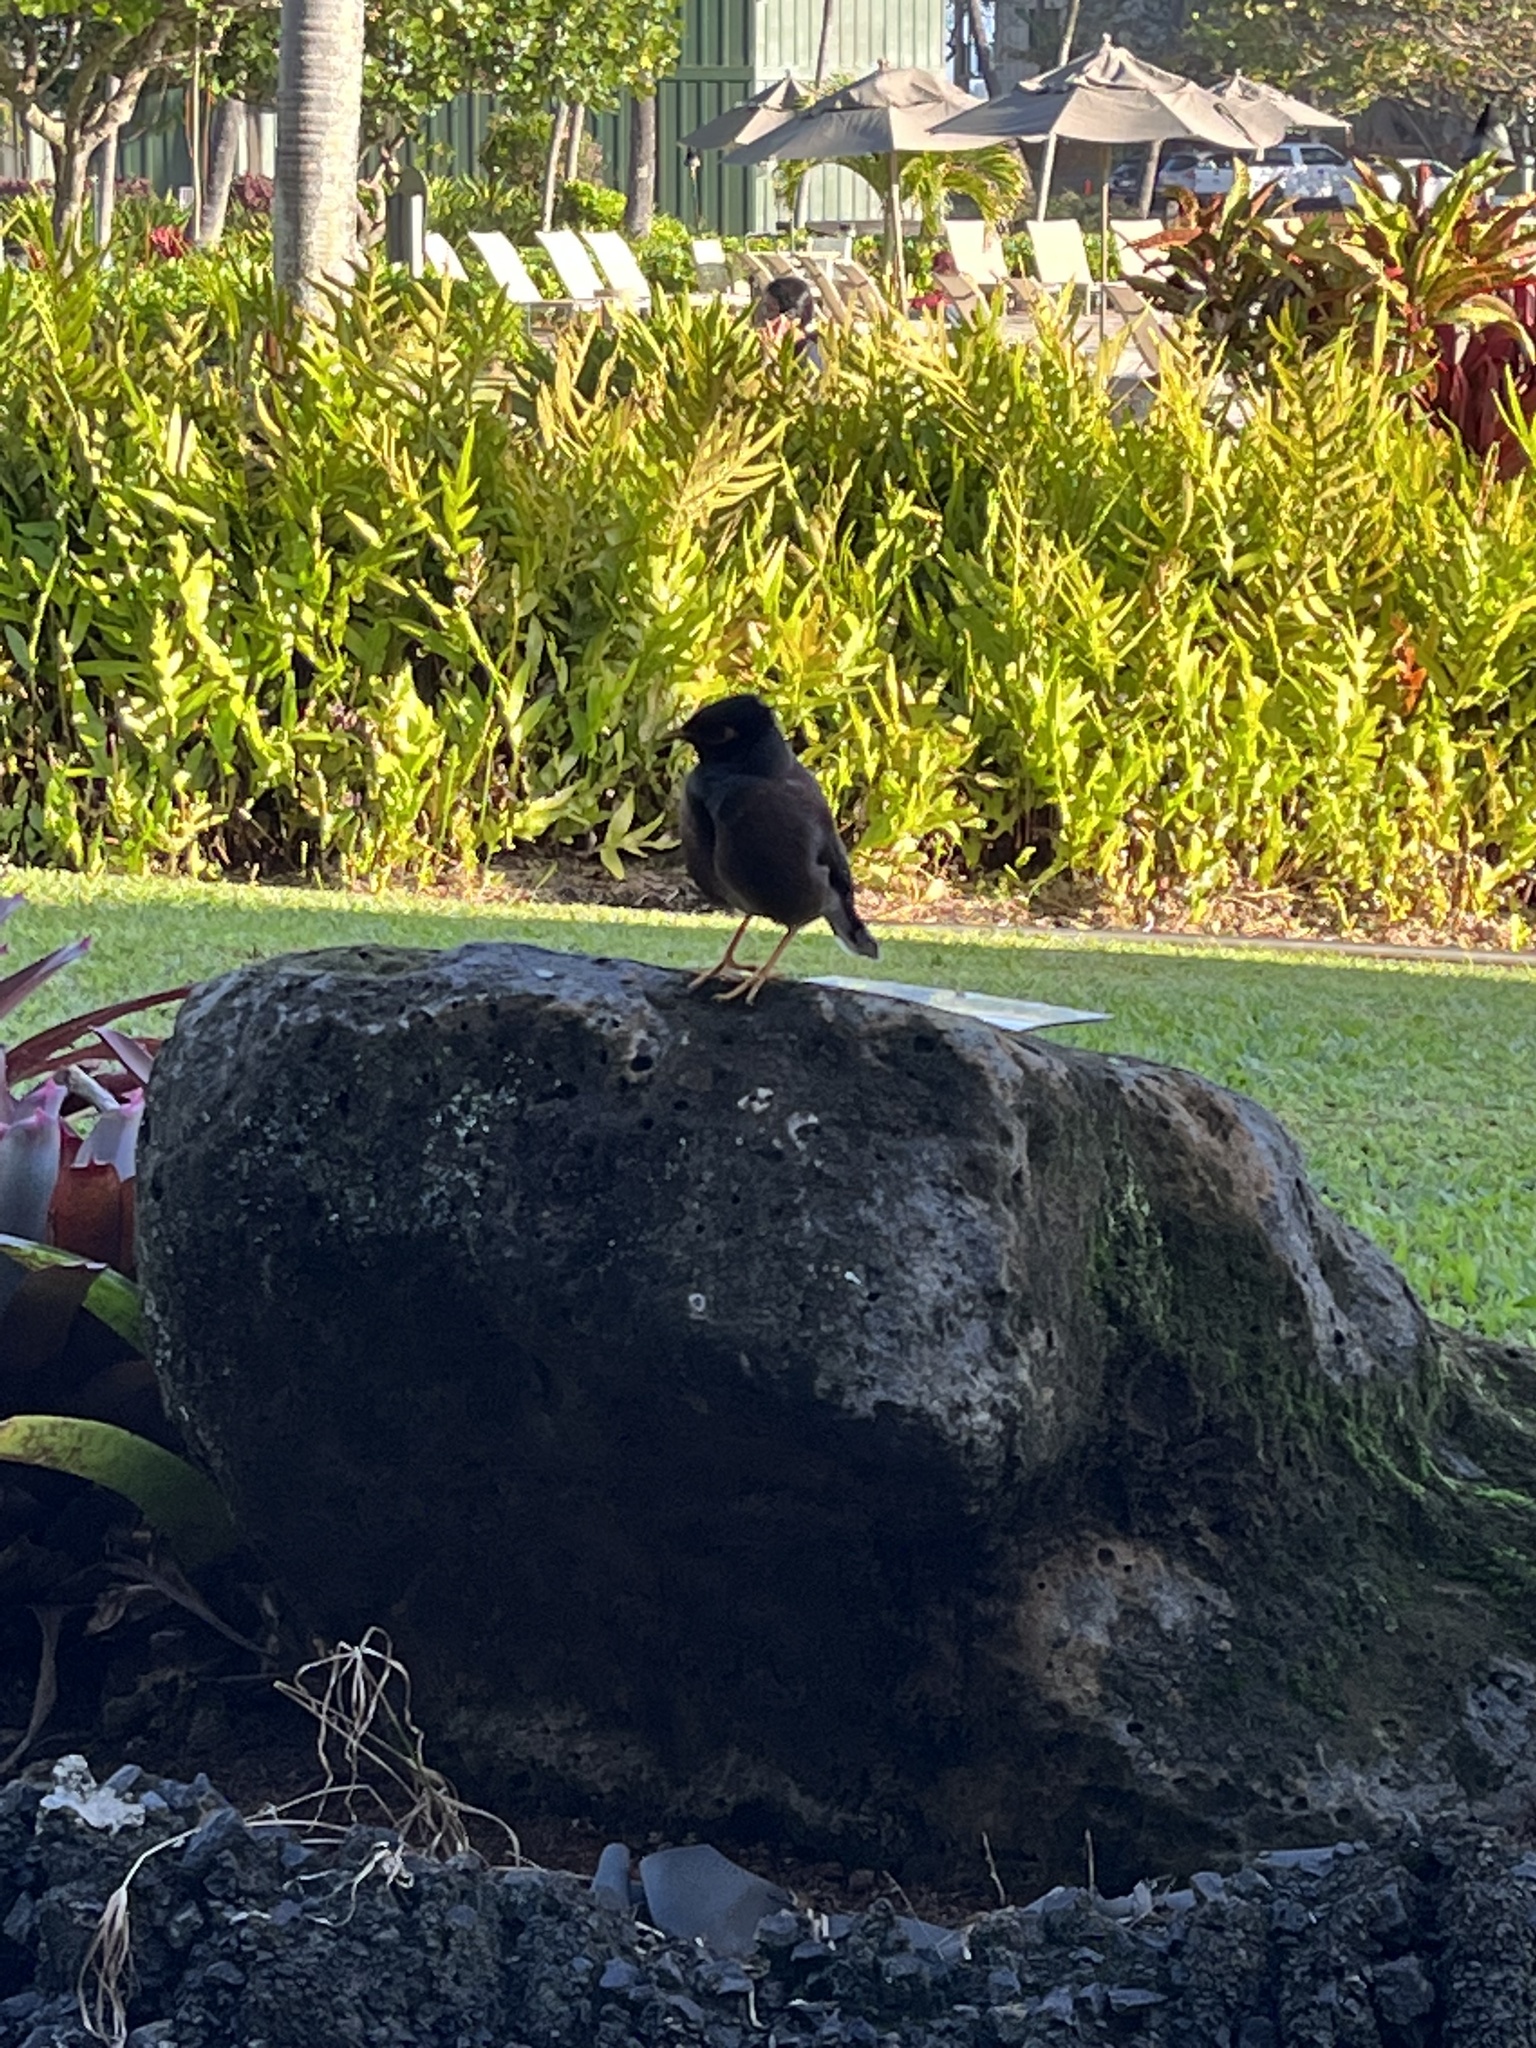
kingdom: Animalia
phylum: Chordata
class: Aves
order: Passeriformes
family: Sturnidae
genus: Acridotheres
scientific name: Acridotheres tristis
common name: Common myna
